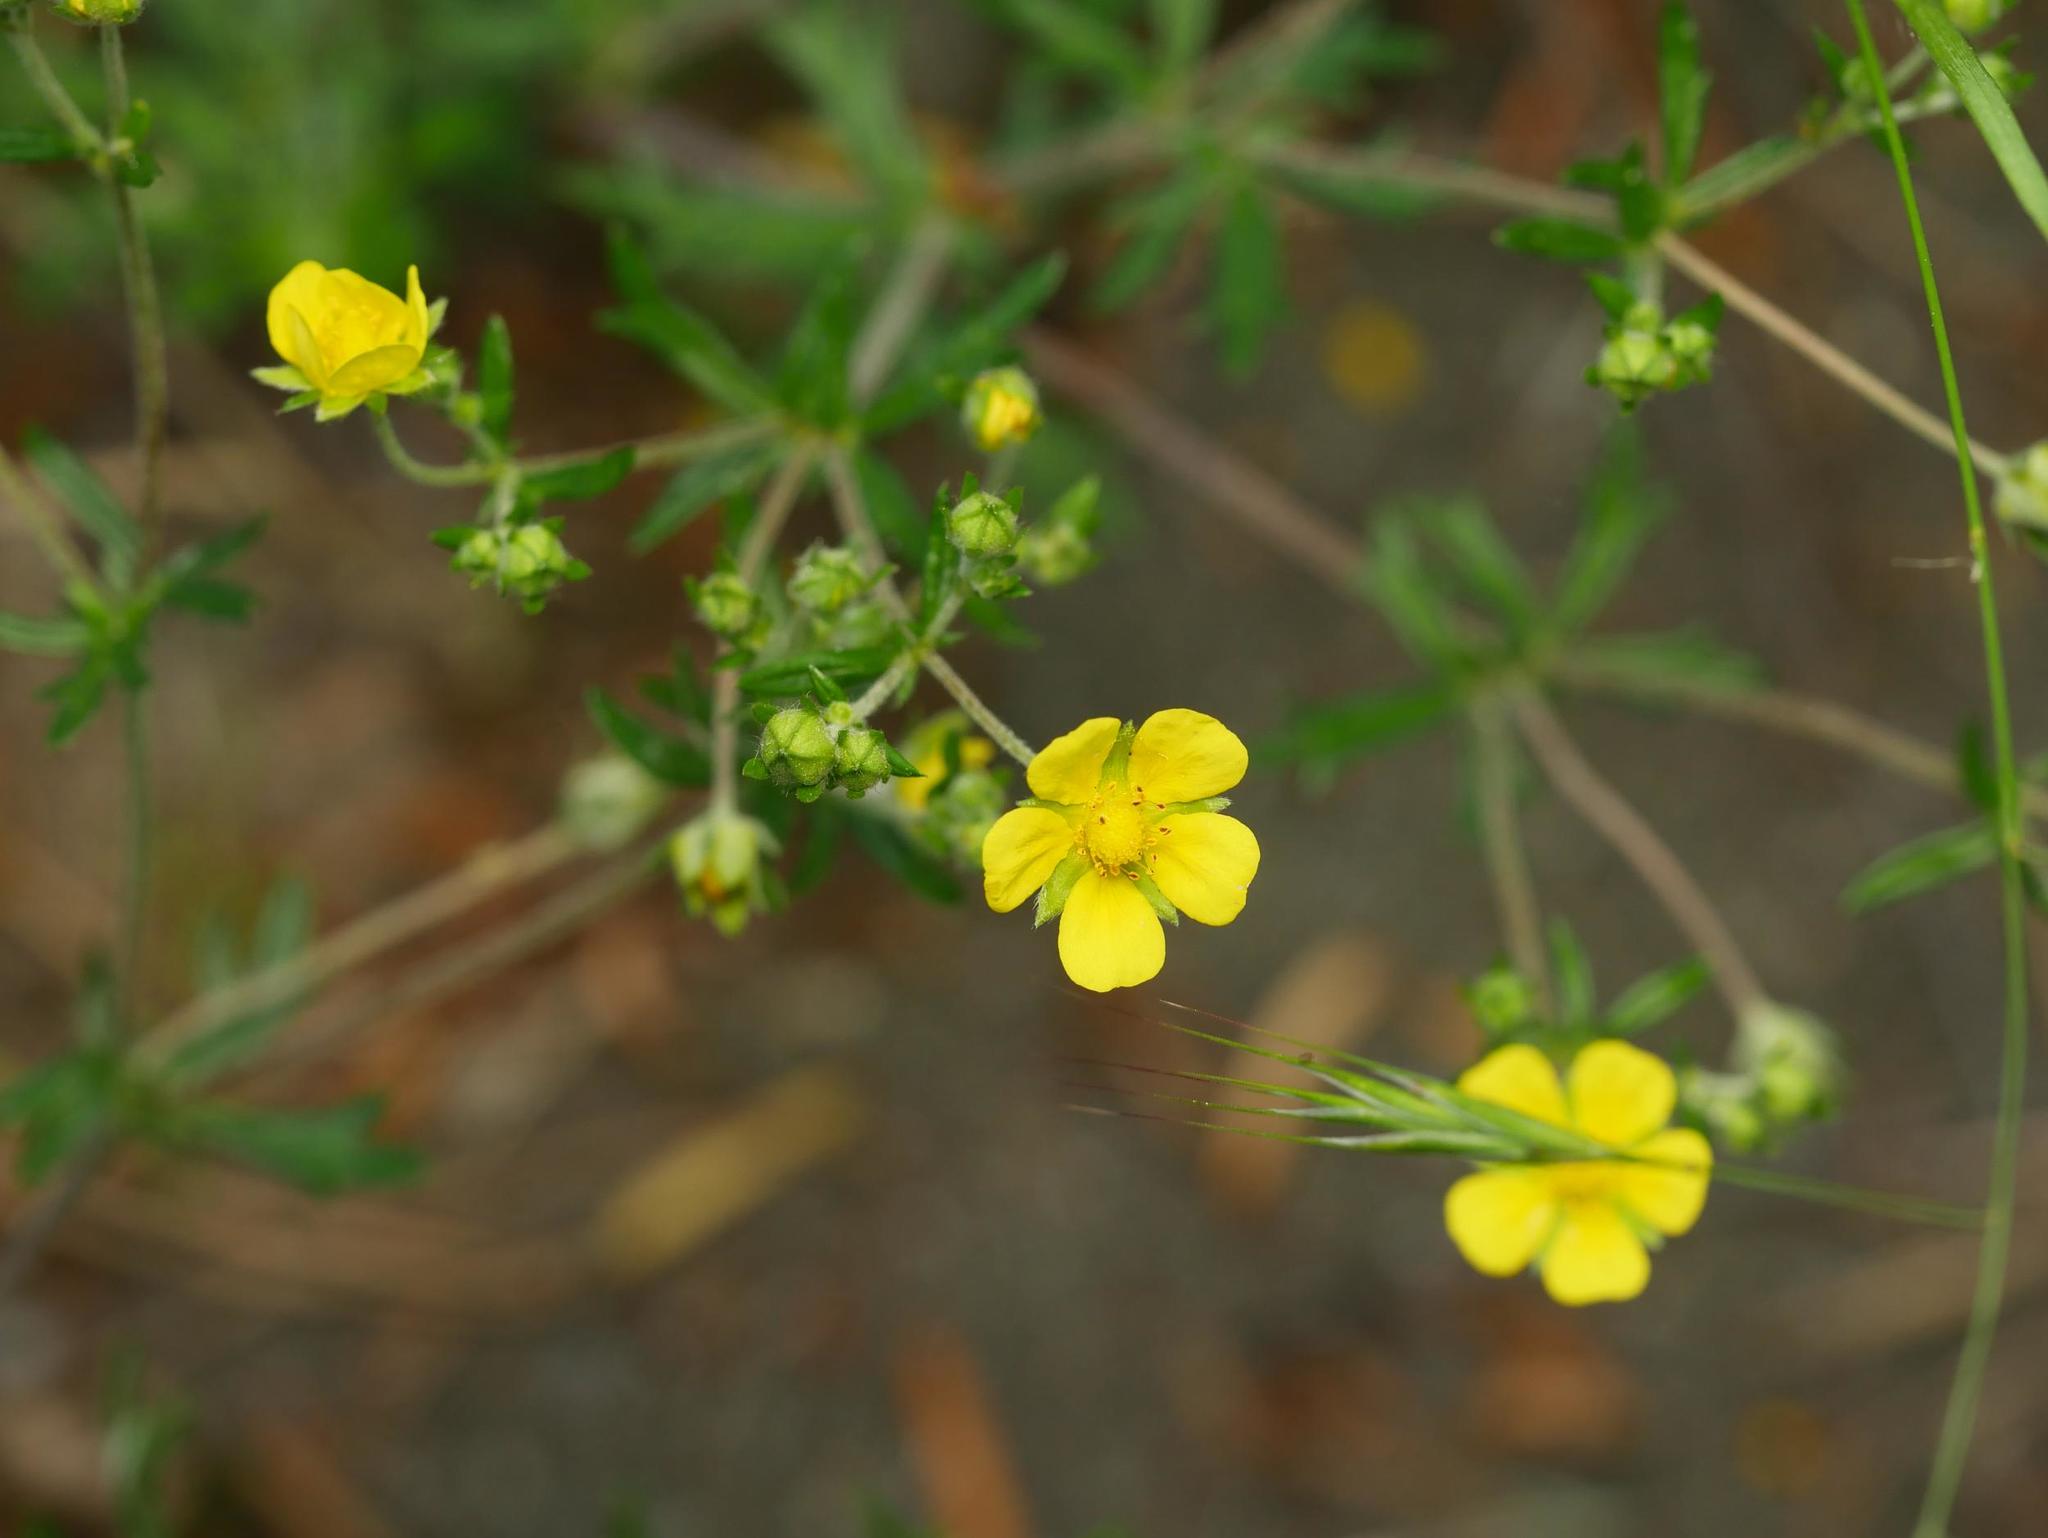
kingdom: Plantae
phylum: Tracheophyta
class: Magnoliopsida
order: Rosales
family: Rosaceae
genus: Potentilla
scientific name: Potentilla argentea
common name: Hoary cinquefoil
